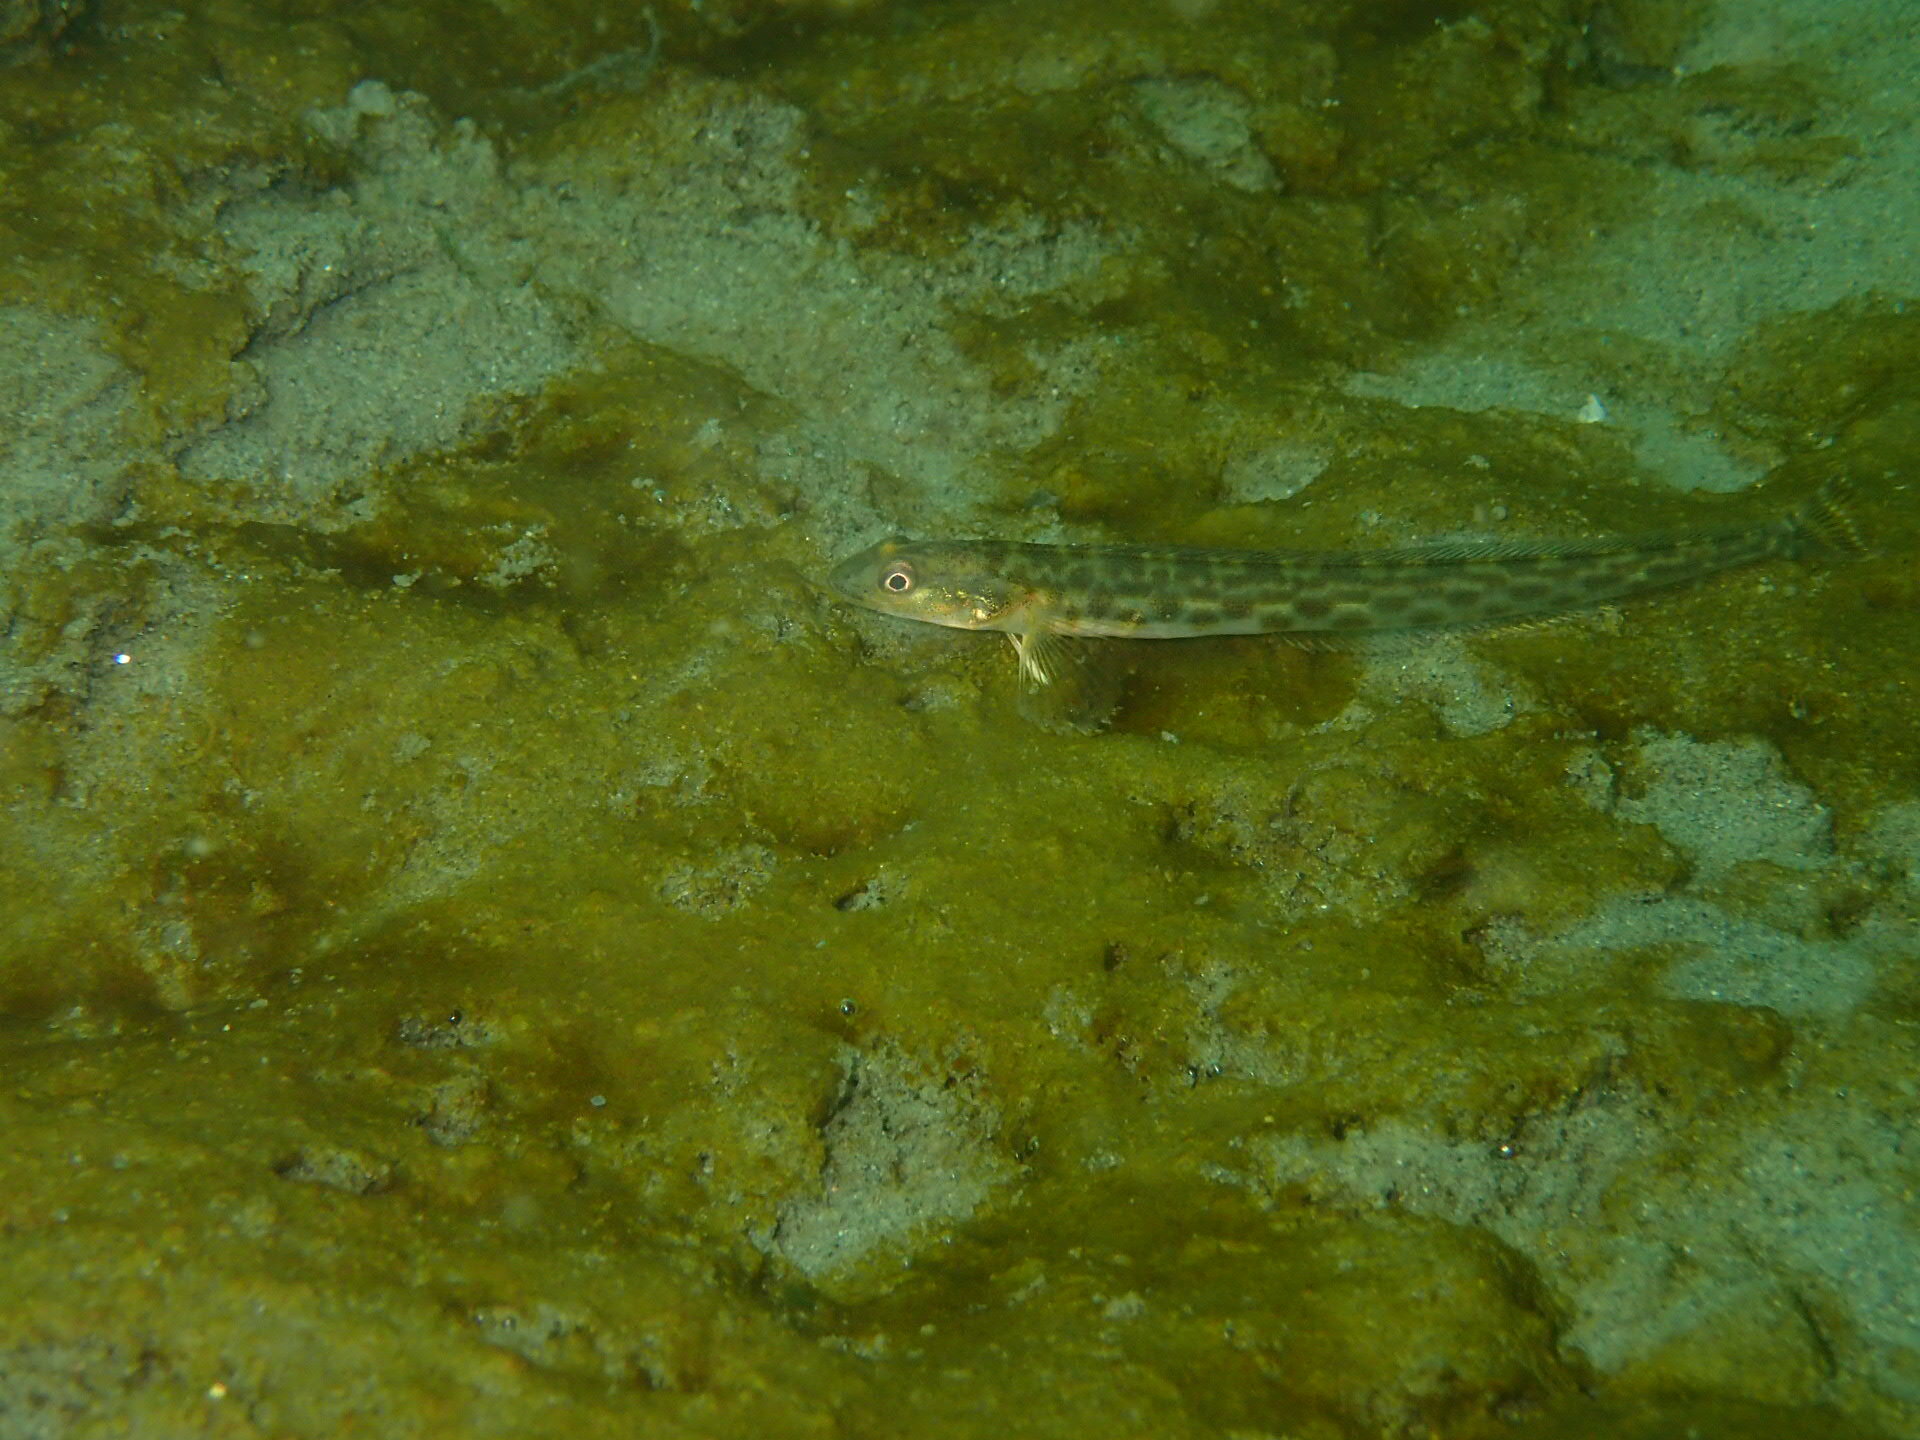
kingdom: Animalia
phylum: Chordata
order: Perciformes
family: Stichaeidae
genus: Lumpenus
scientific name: Lumpenus sagitta
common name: Snake prickleback
